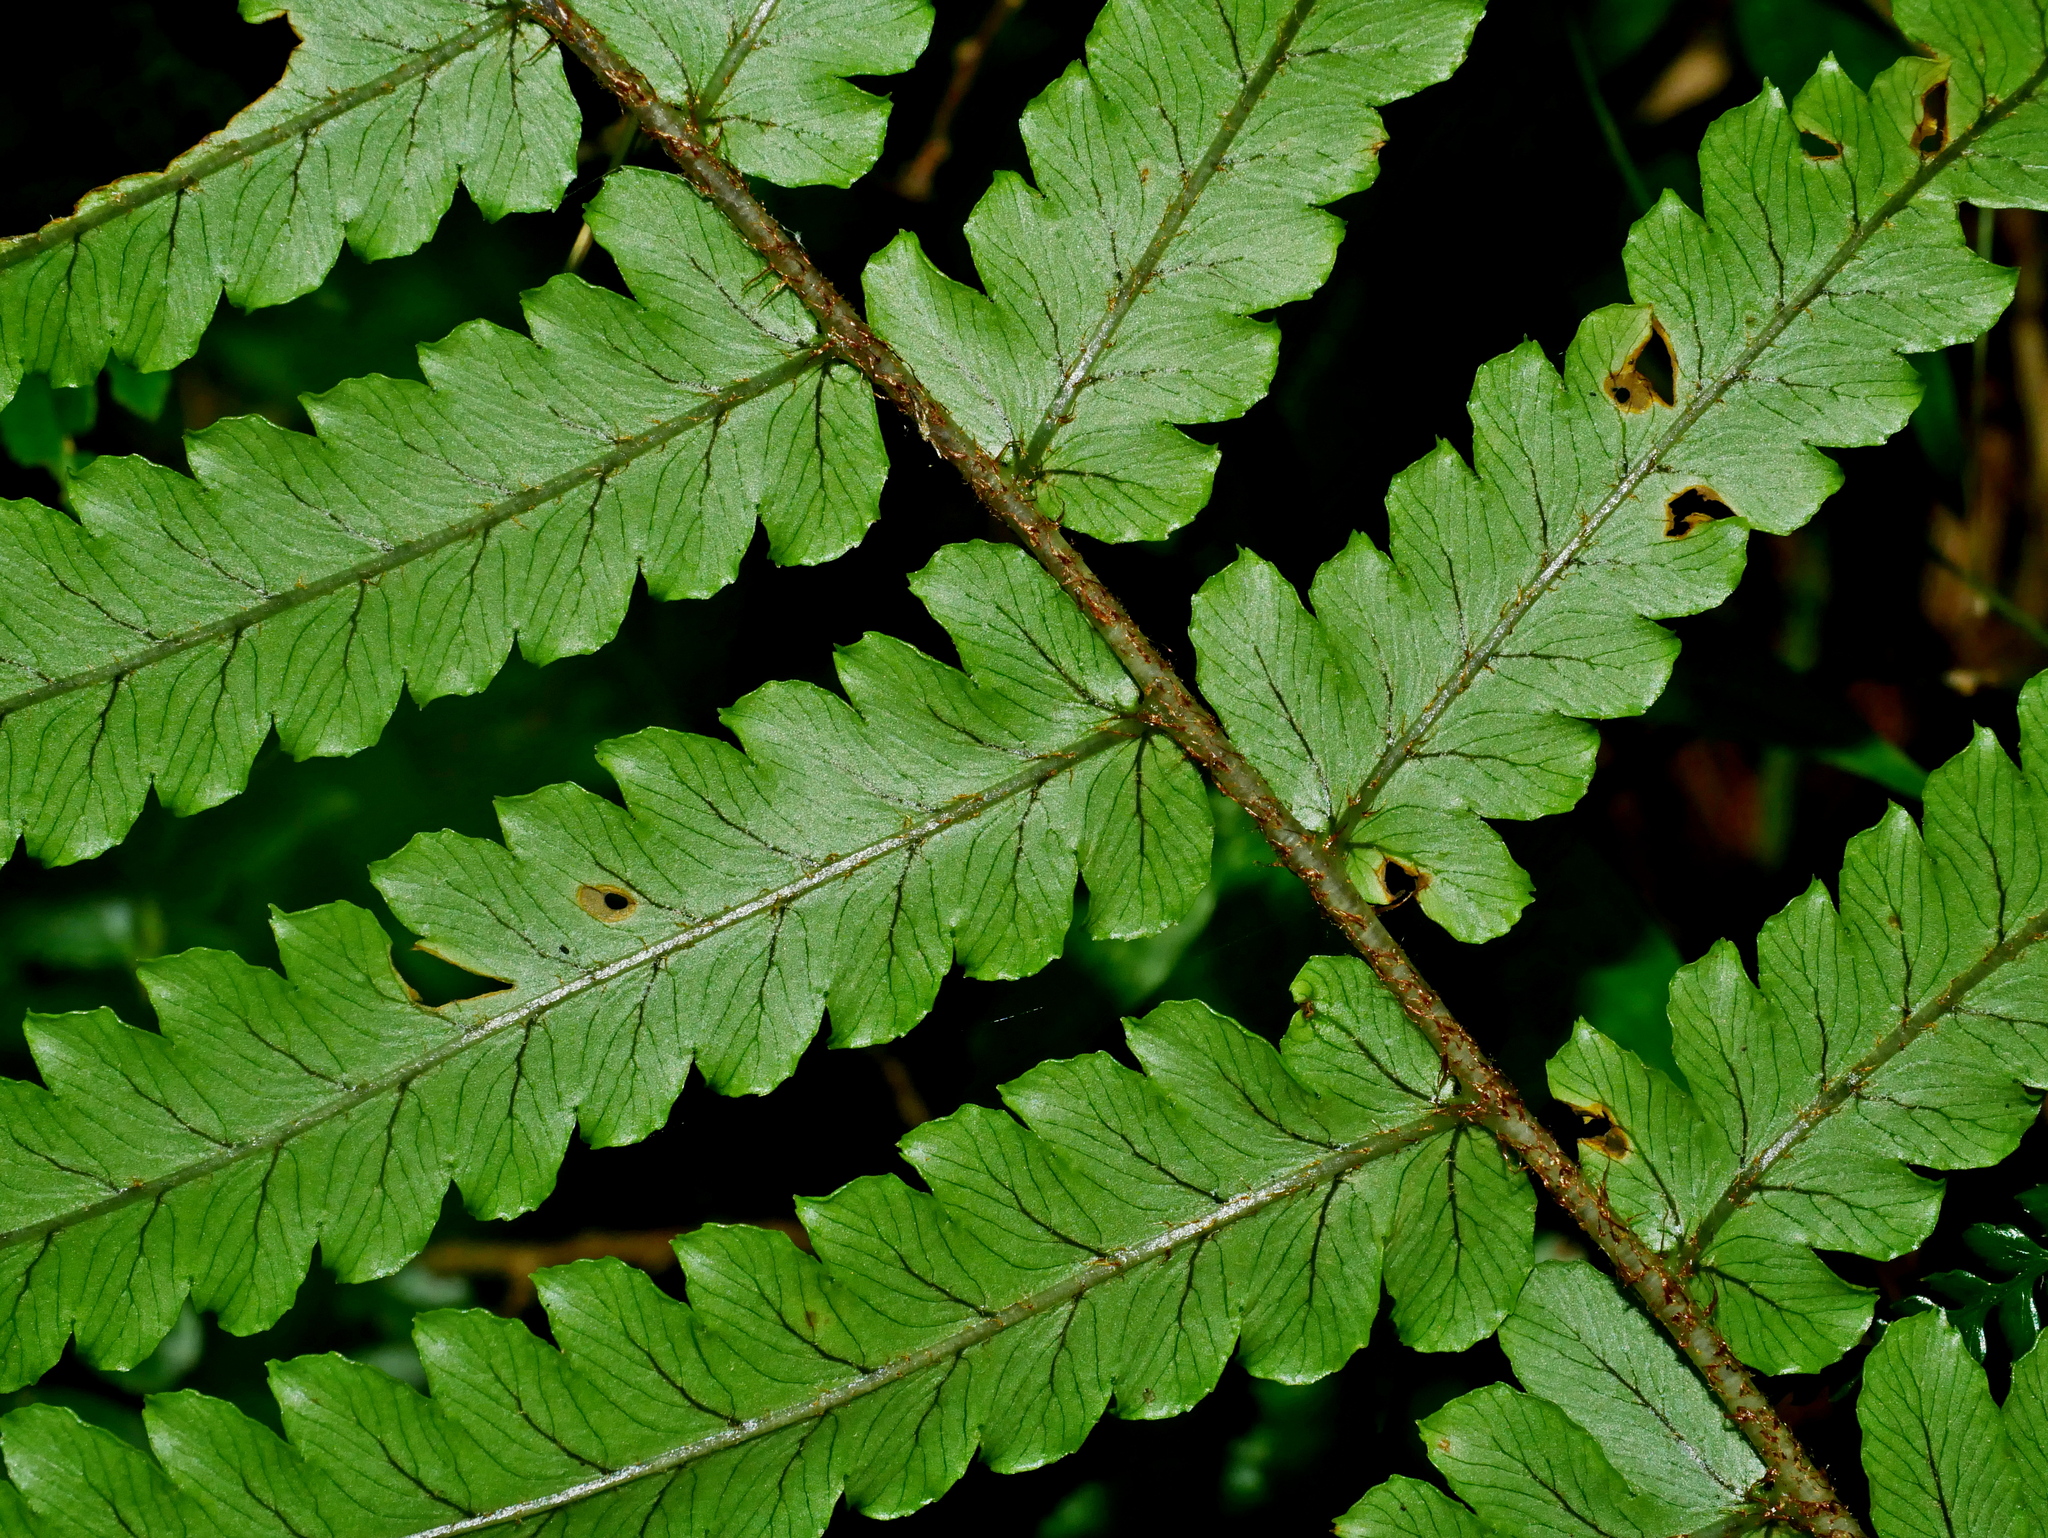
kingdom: Plantae
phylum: Tracheophyta
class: Polypodiopsida
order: Polypodiales
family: Dryopteridaceae
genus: Dryopteris
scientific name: Dryopteris pseudolunanensis
